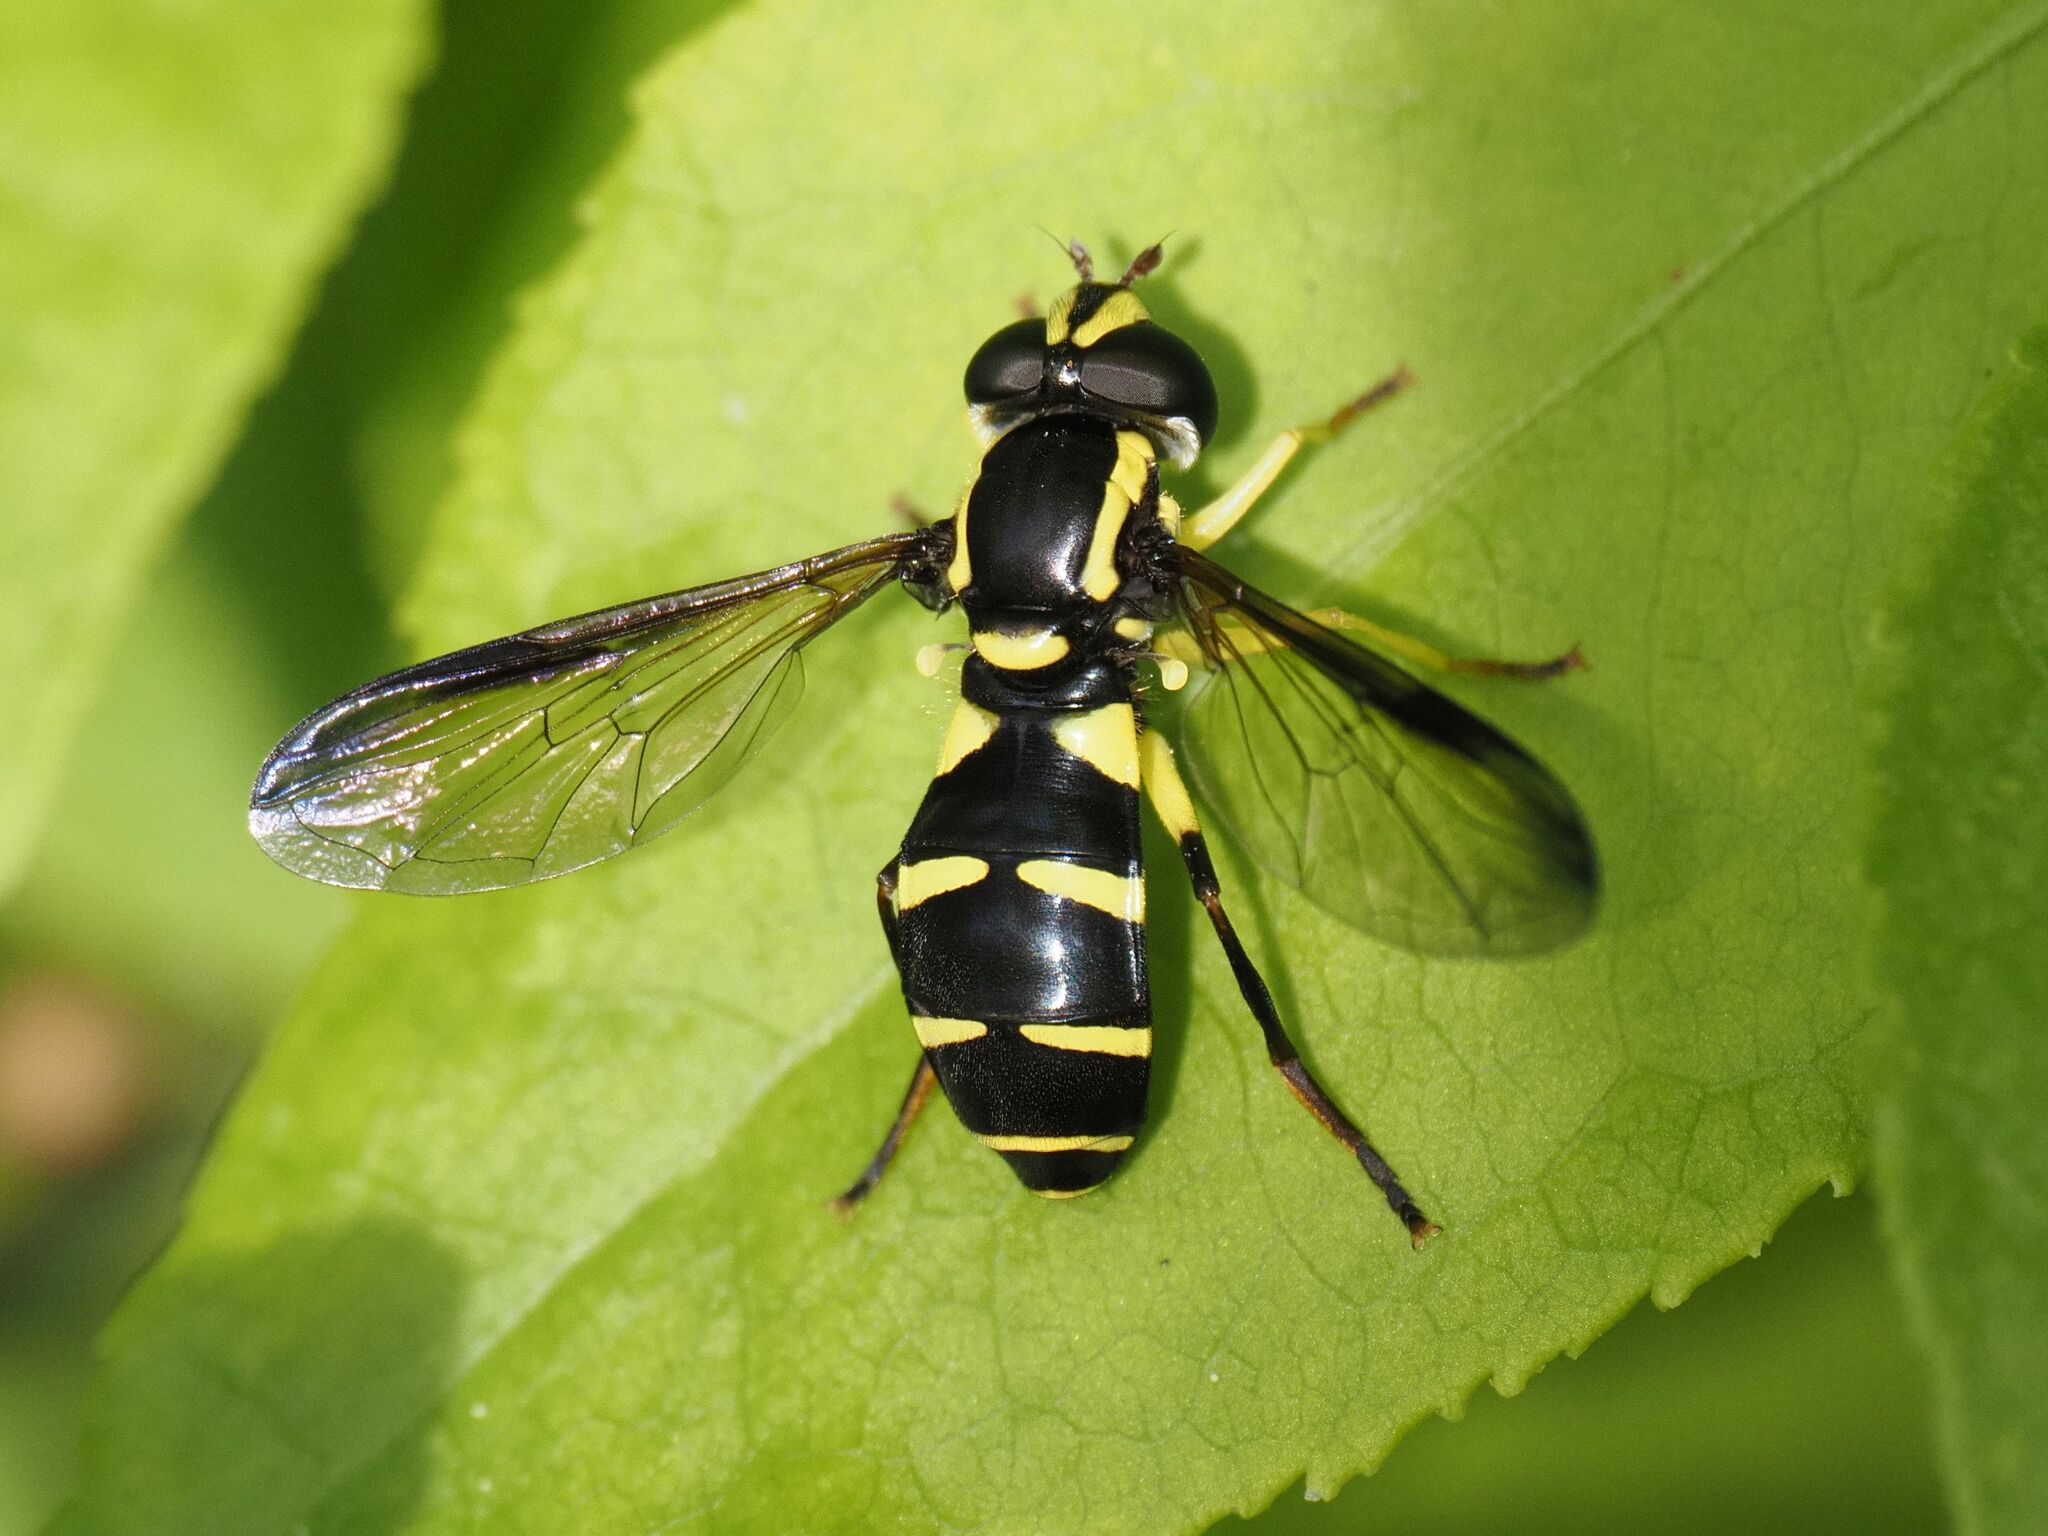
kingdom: Animalia
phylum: Arthropoda
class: Insecta
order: Diptera
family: Syrphidae
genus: Philhelius
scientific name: Philhelius dives
